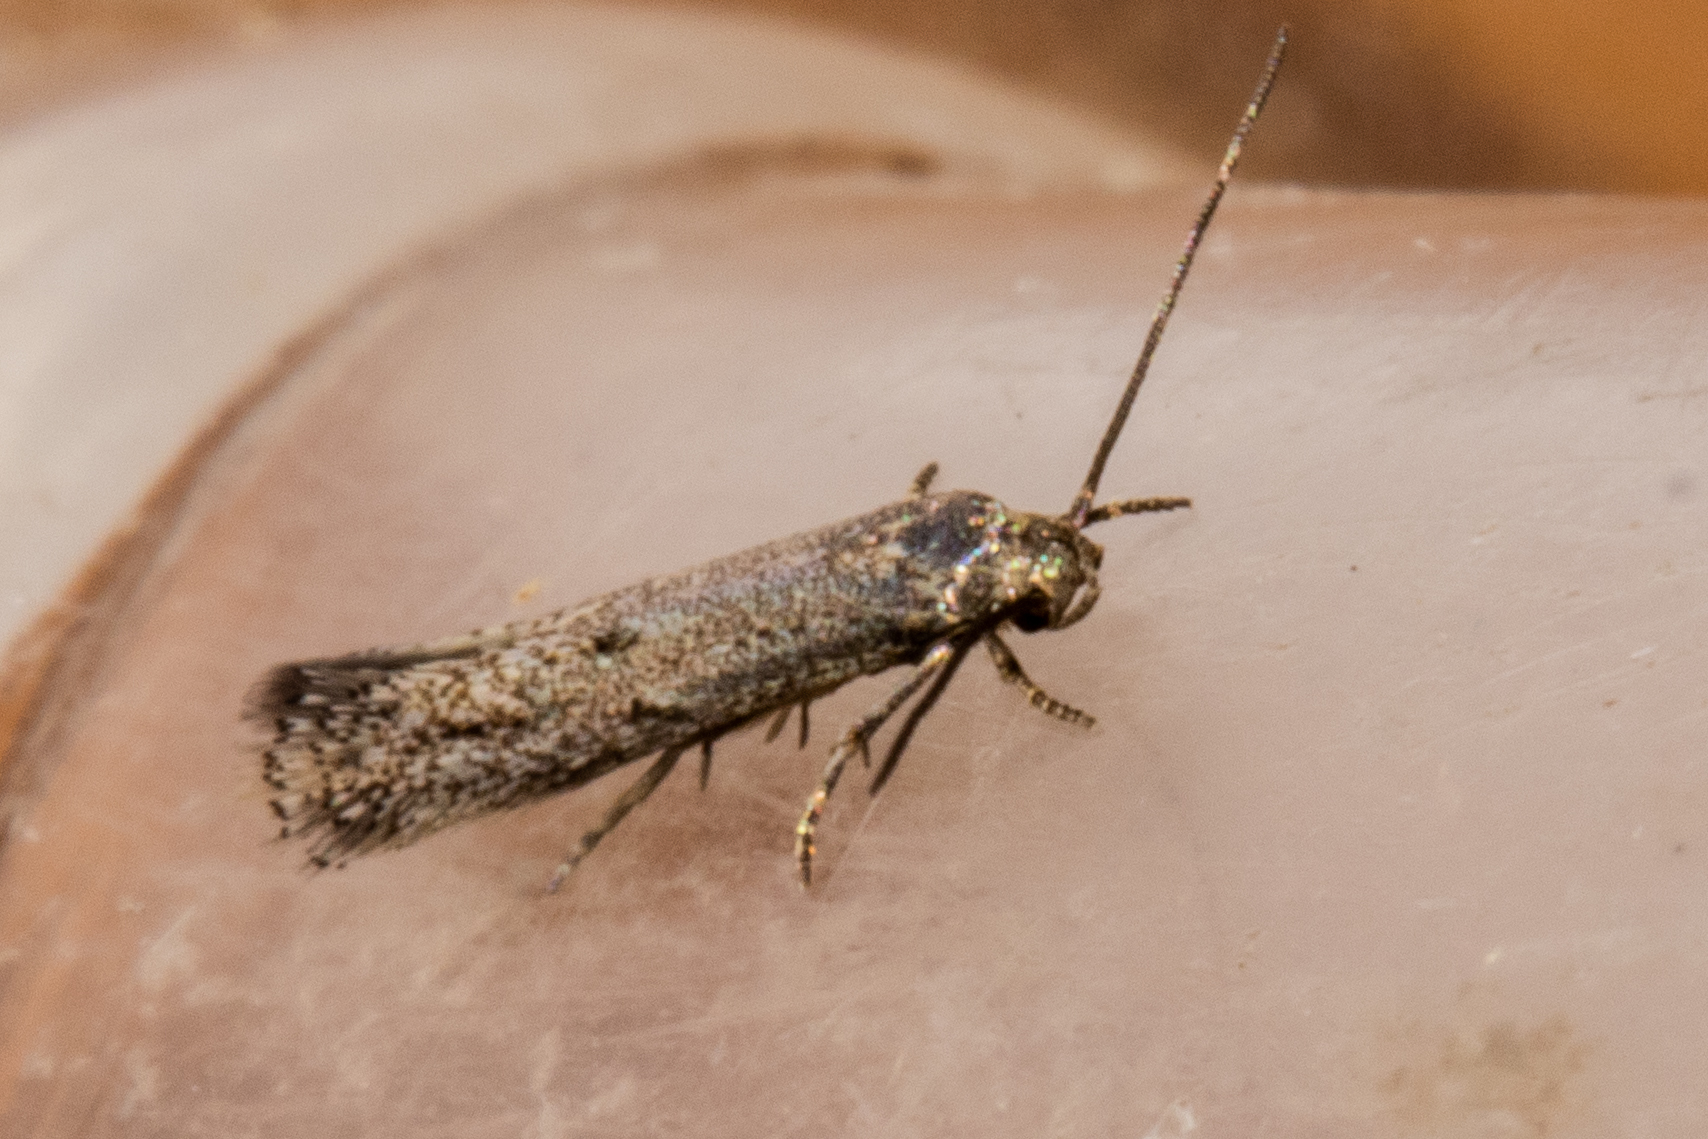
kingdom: Animalia
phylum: Arthropoda
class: Insecta
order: Lepidoptera
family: Elachistidae
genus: Elachista
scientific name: Elachista ombrodoca
